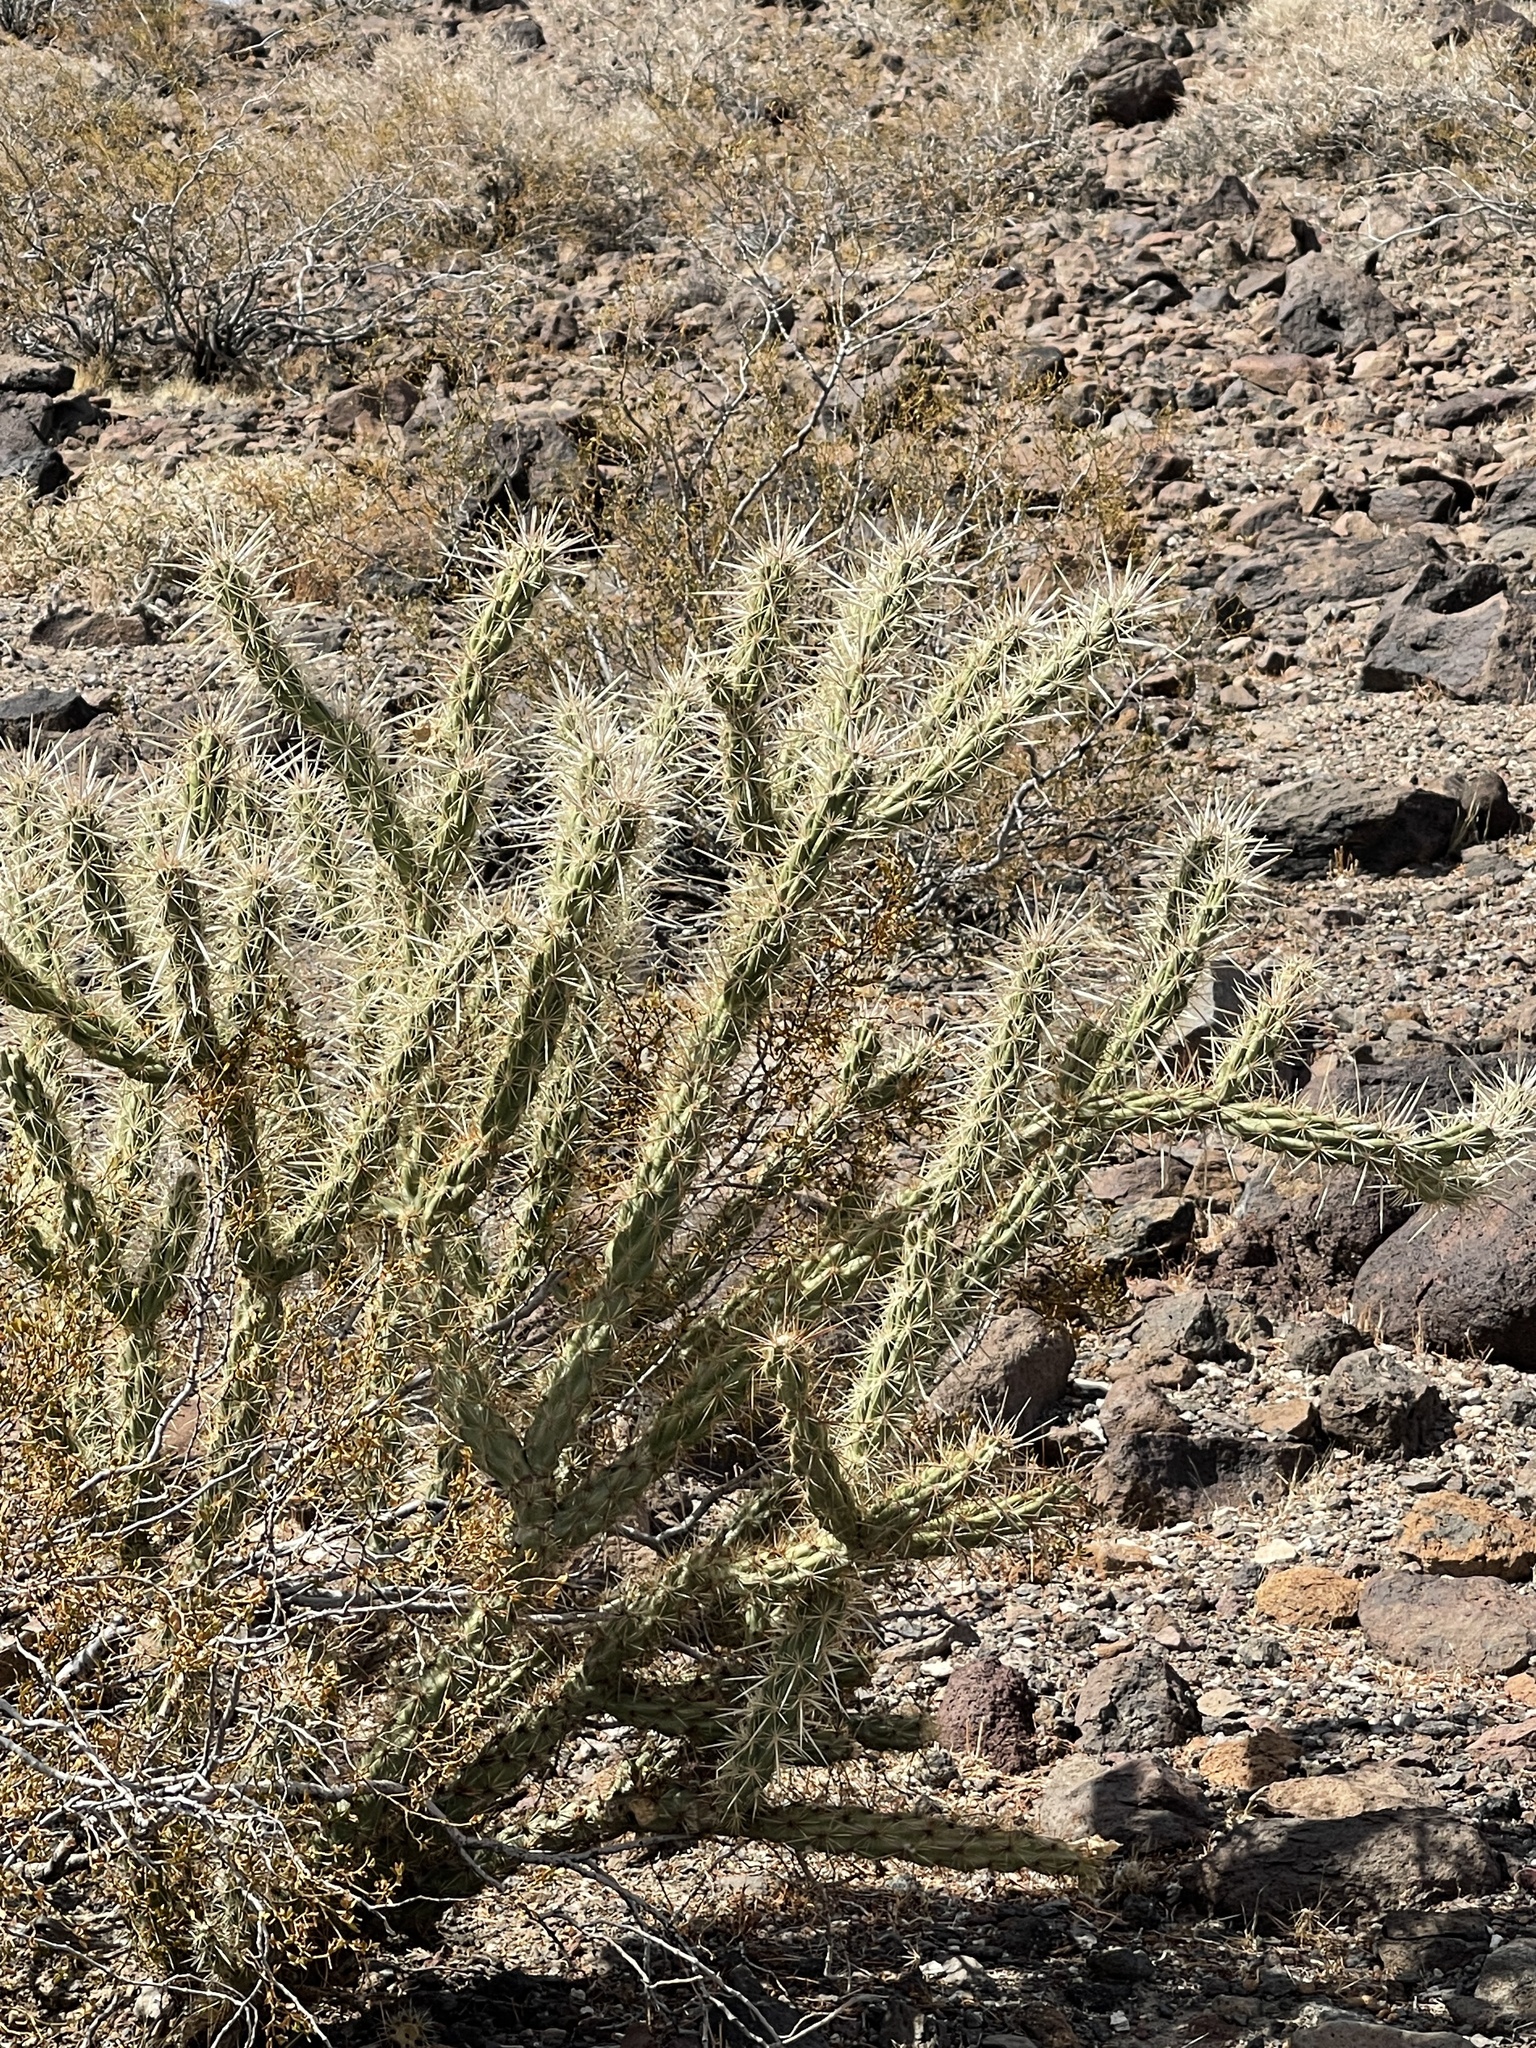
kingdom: Plantae
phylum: Tracheophyta
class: Magnoliopsida
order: Caryophyllales
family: Cactaceae
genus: Cylindropuntia
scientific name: Cylindropuntia acanthocarpa
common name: Buckhorn cholla
